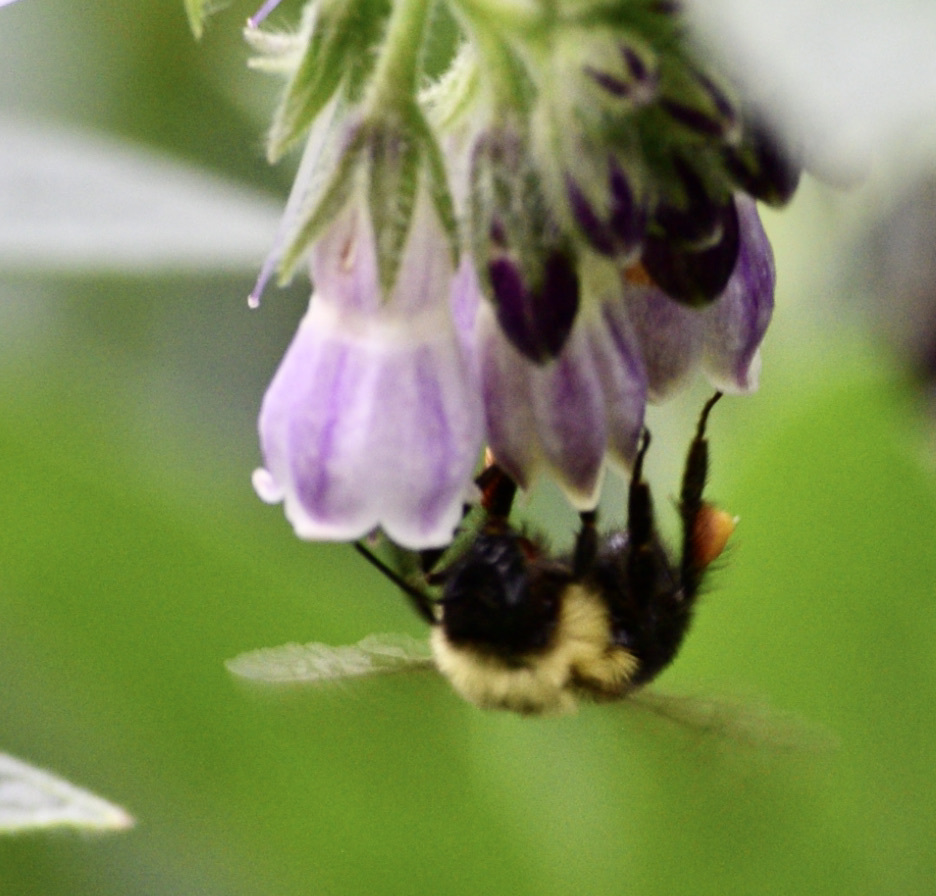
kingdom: Animalia
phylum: Arthropoda
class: Insecta
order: Hymenoptera
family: Apidae
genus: Bombus
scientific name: Bombus bimaculatus
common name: Two-spotted bumble bee
